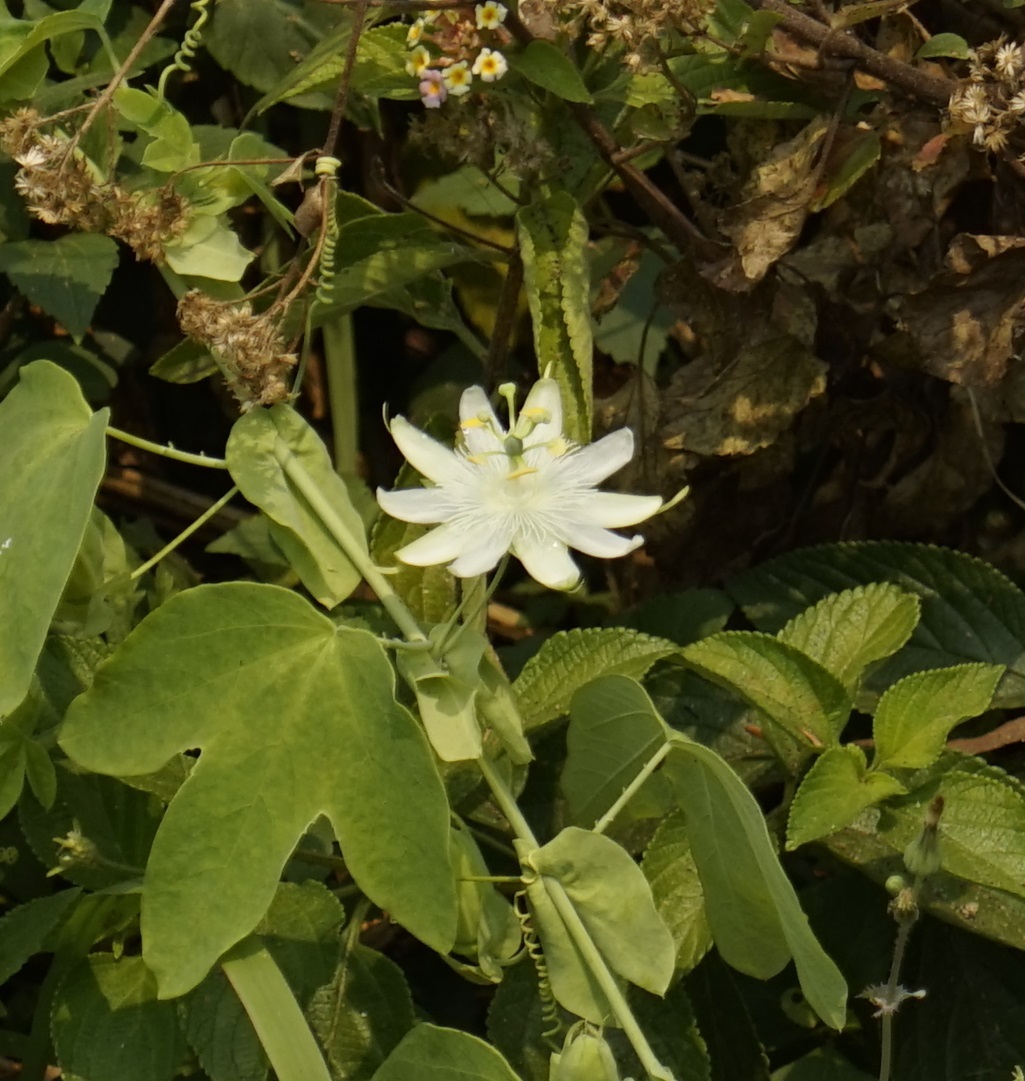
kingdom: Plantae
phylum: Tracheophyta
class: Magnoliopsida
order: Malpighiales
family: Passifloraceae
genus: Passiflora
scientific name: Passiflora subpeltata
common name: White passionflower
